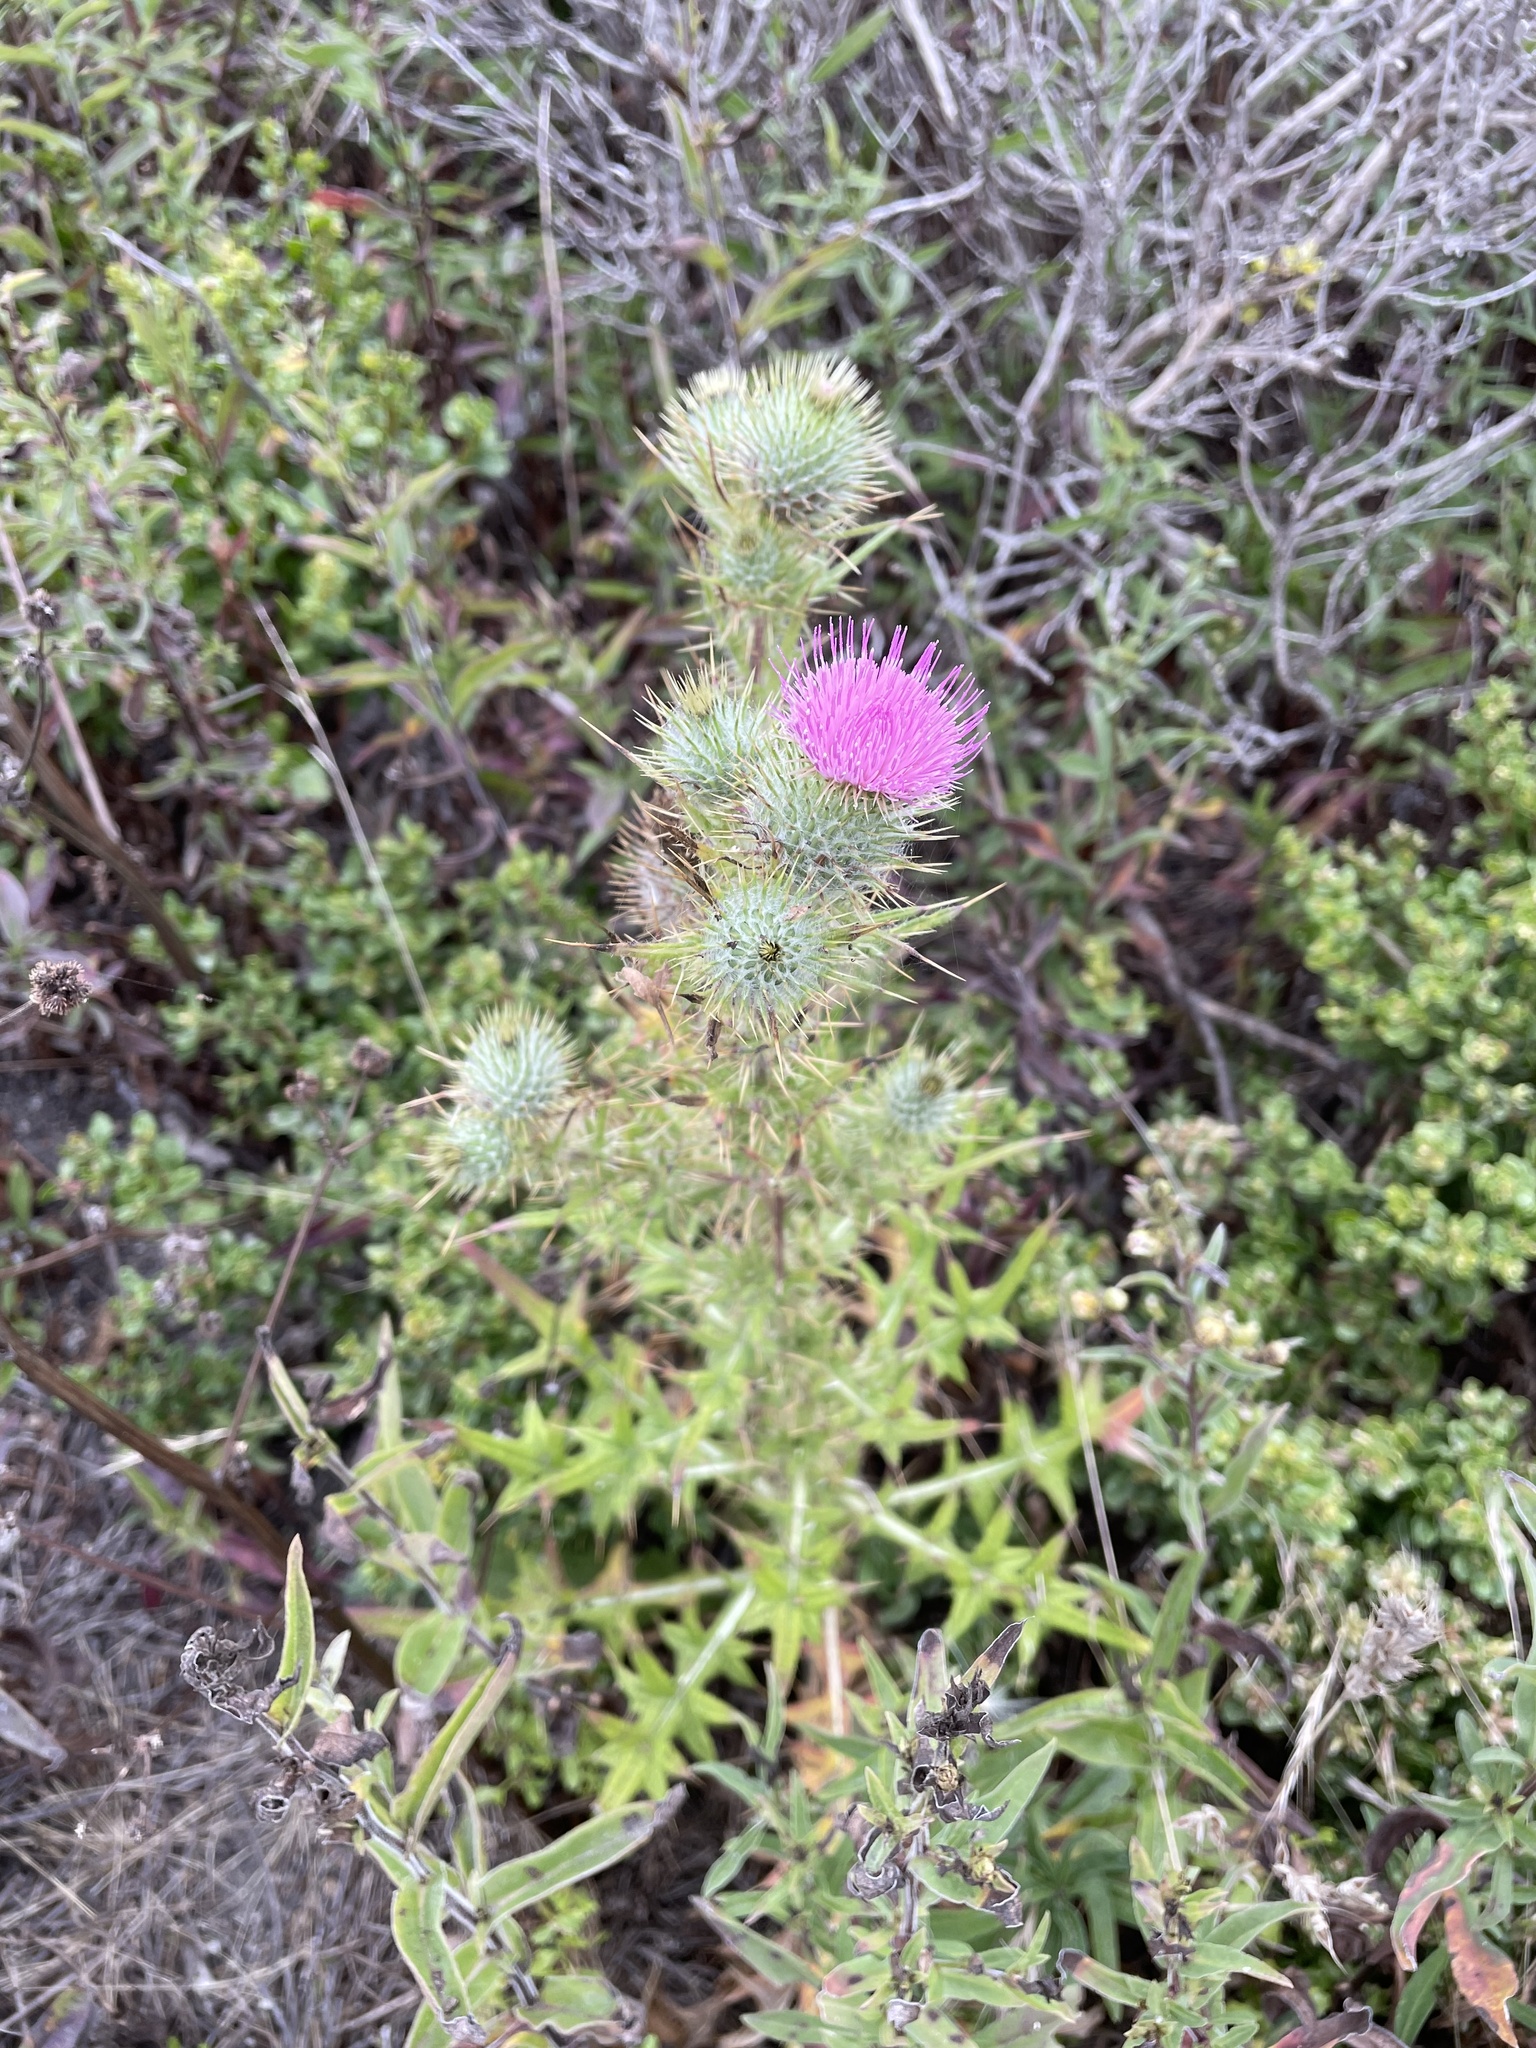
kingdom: Plantae
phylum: Tracheophyta
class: Magnoliopsida
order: Asterales
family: Asteraceae
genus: Cirsium
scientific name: Cirsium vulgare
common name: Bull thistle
